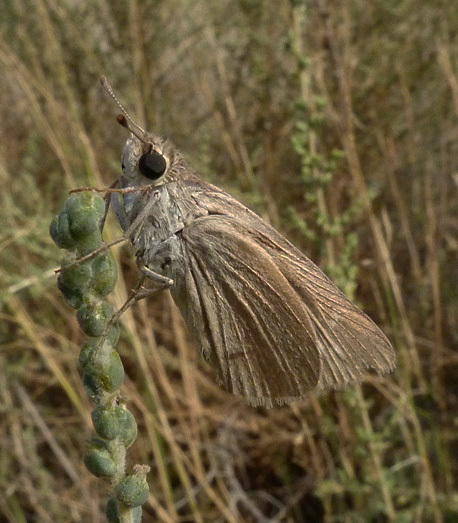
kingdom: Animalia
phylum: Arthropoda
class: Insecta
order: Lepidoptera
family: Hesperiidae
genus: Gegenes
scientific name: Gegenes nostrodamus
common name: Mediterranean skipper
